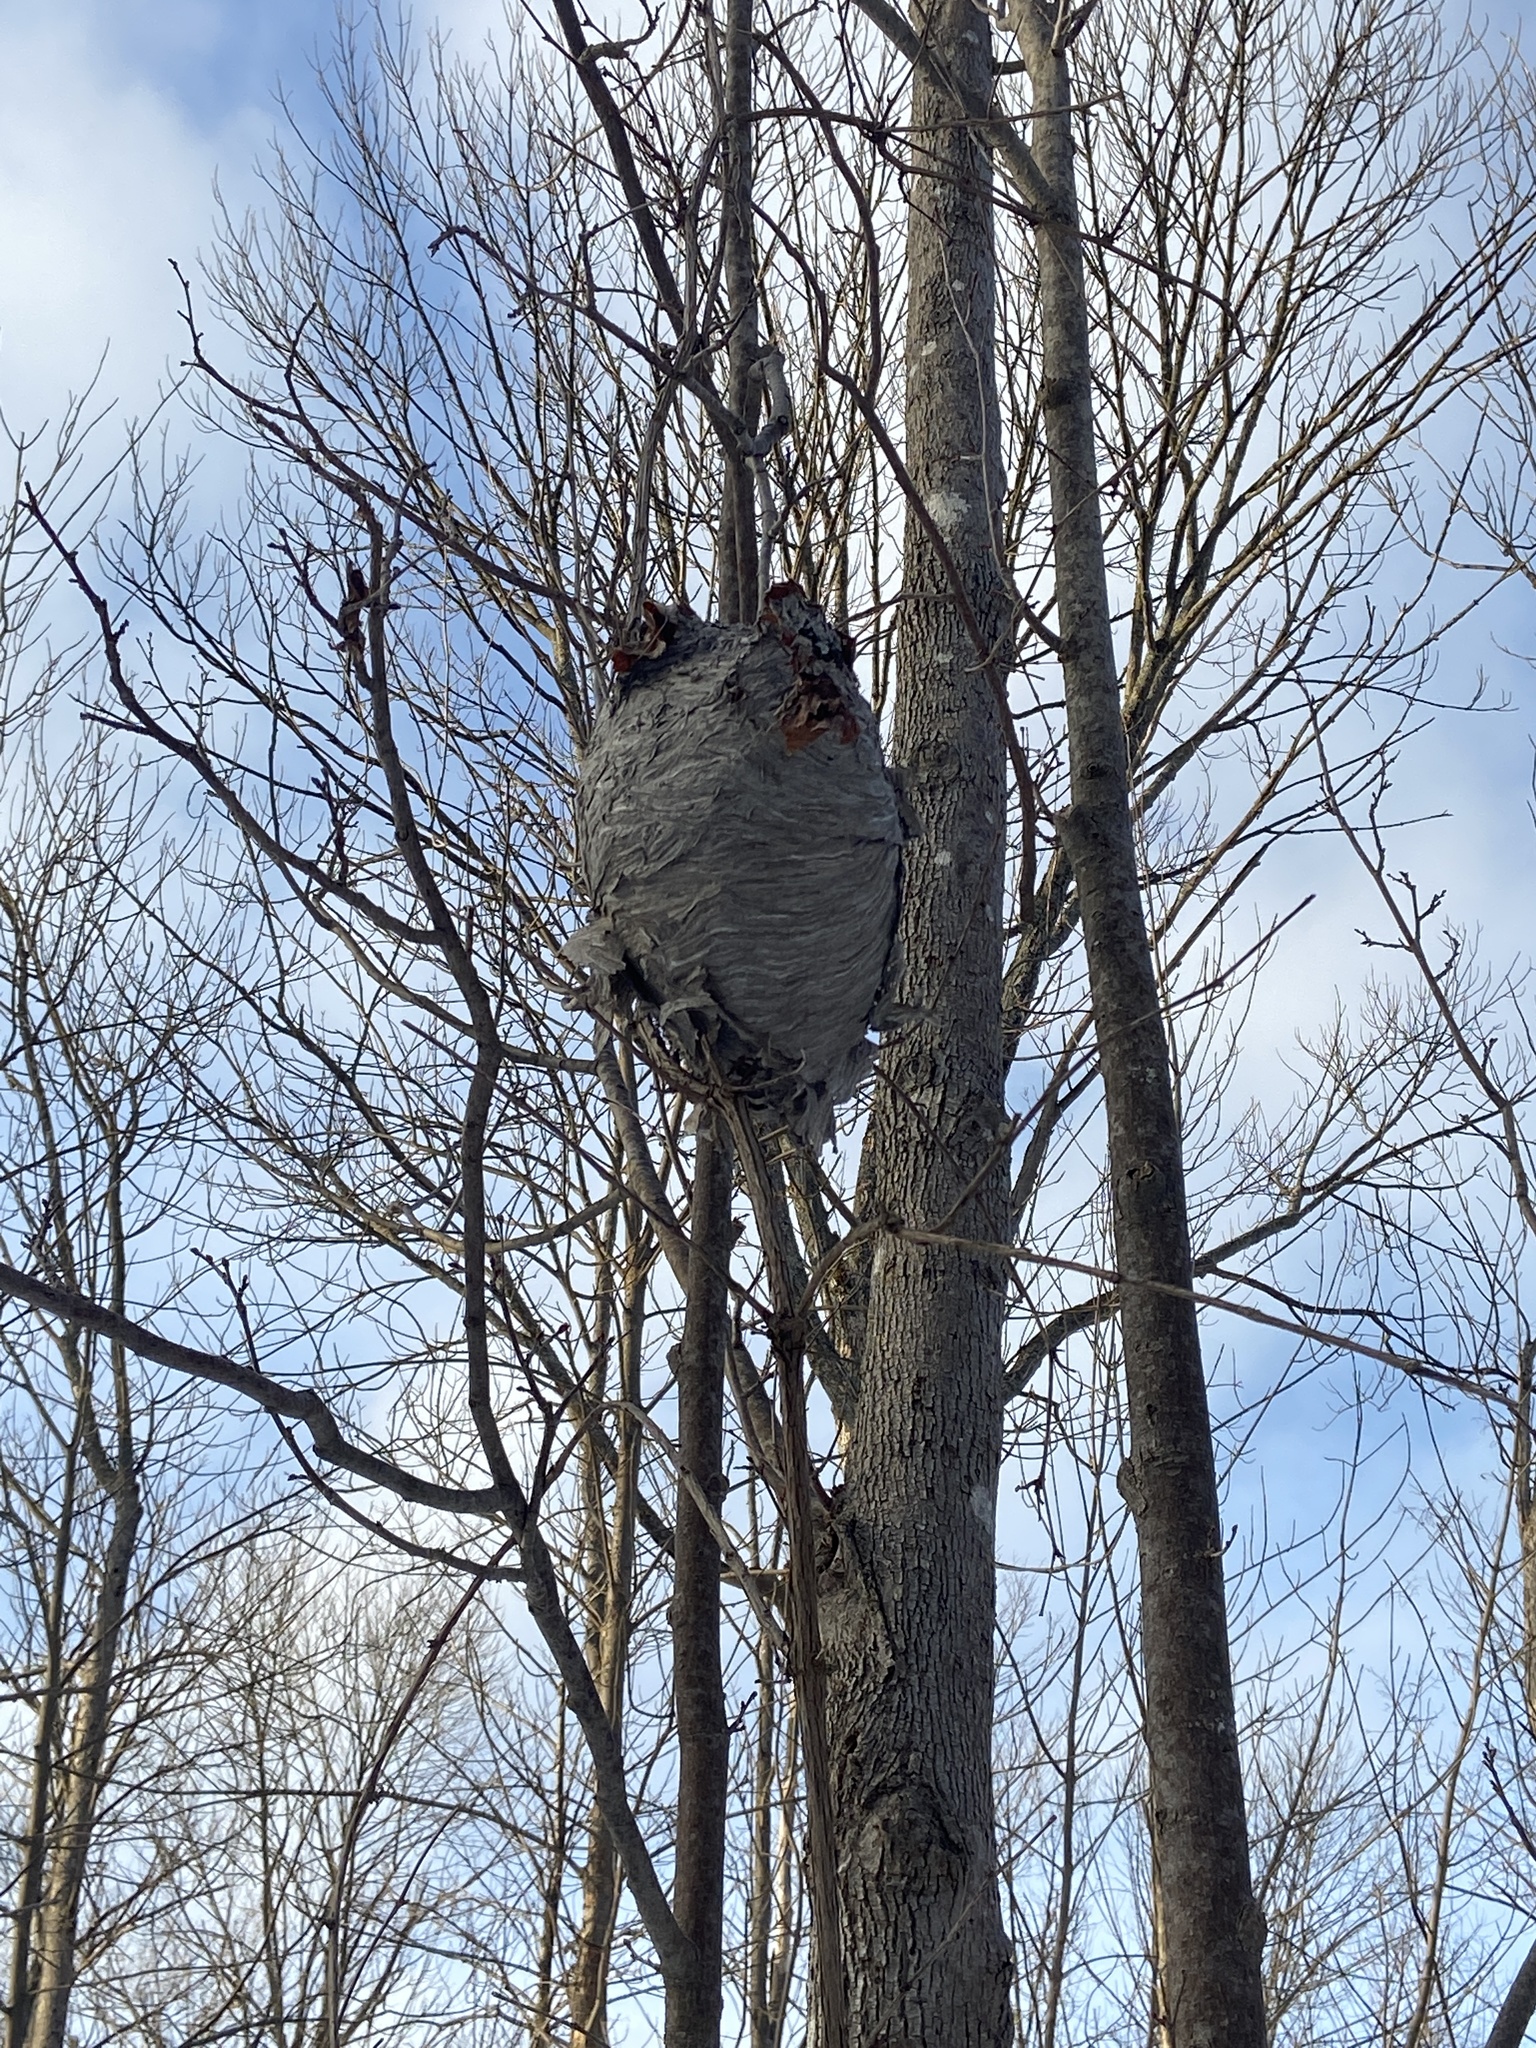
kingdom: Animalia
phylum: Arthropoda
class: Insecta
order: Hymenoptera
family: Vespidae
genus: Dolichovespula
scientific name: Dolichovespula
